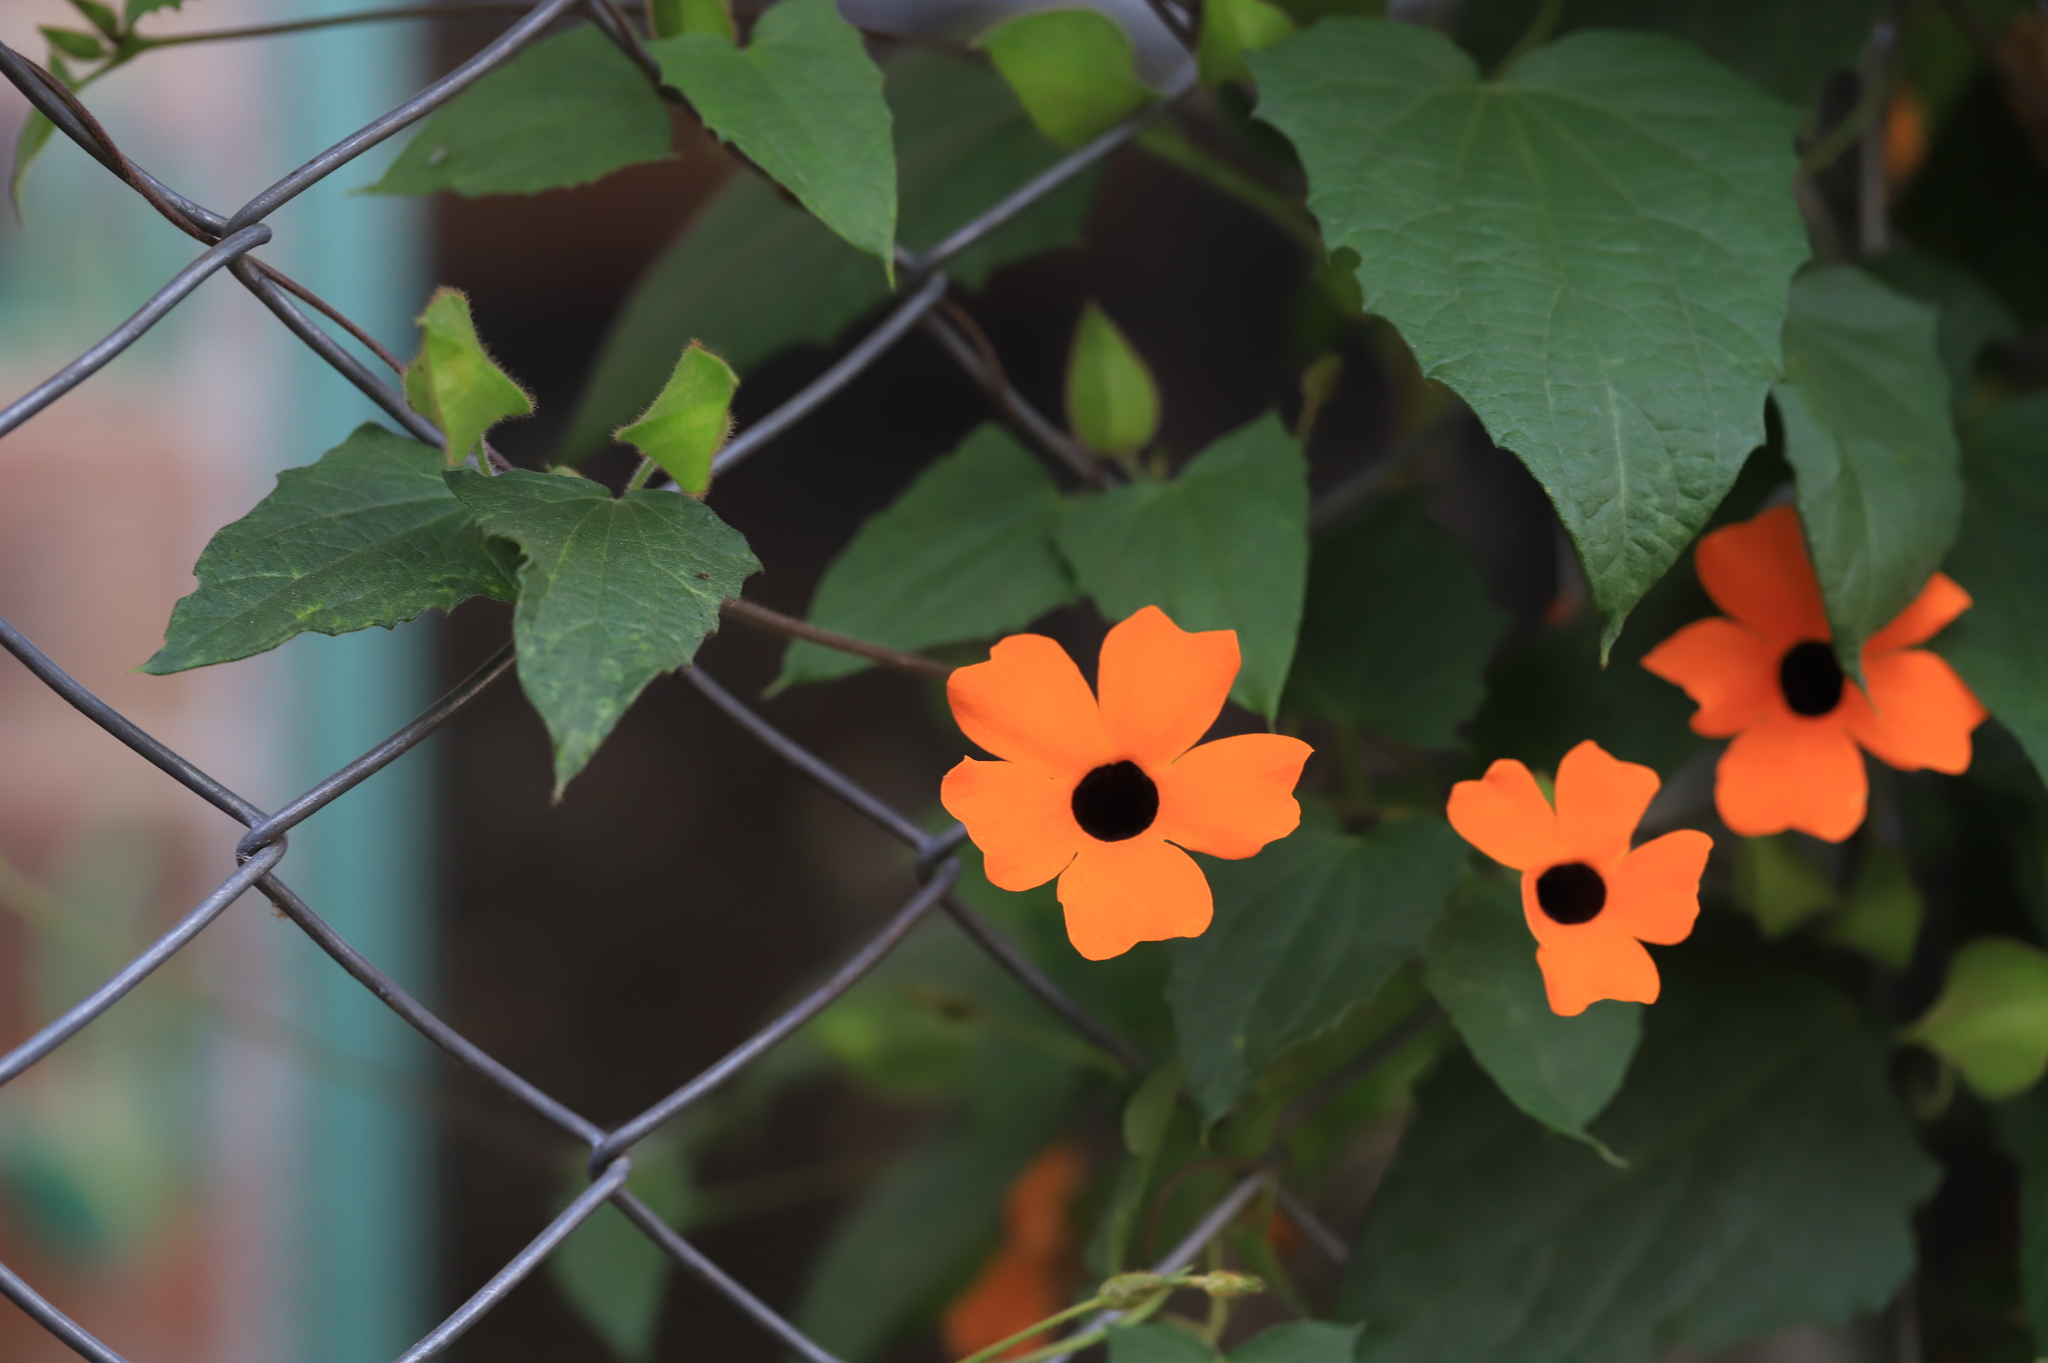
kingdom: Plantae
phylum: Tracheophyta
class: Magnoliopsida
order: Lamiales
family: Acanthaceae
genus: Thunbergia
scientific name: Thunbergia alata
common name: Blackeyed susan vine
